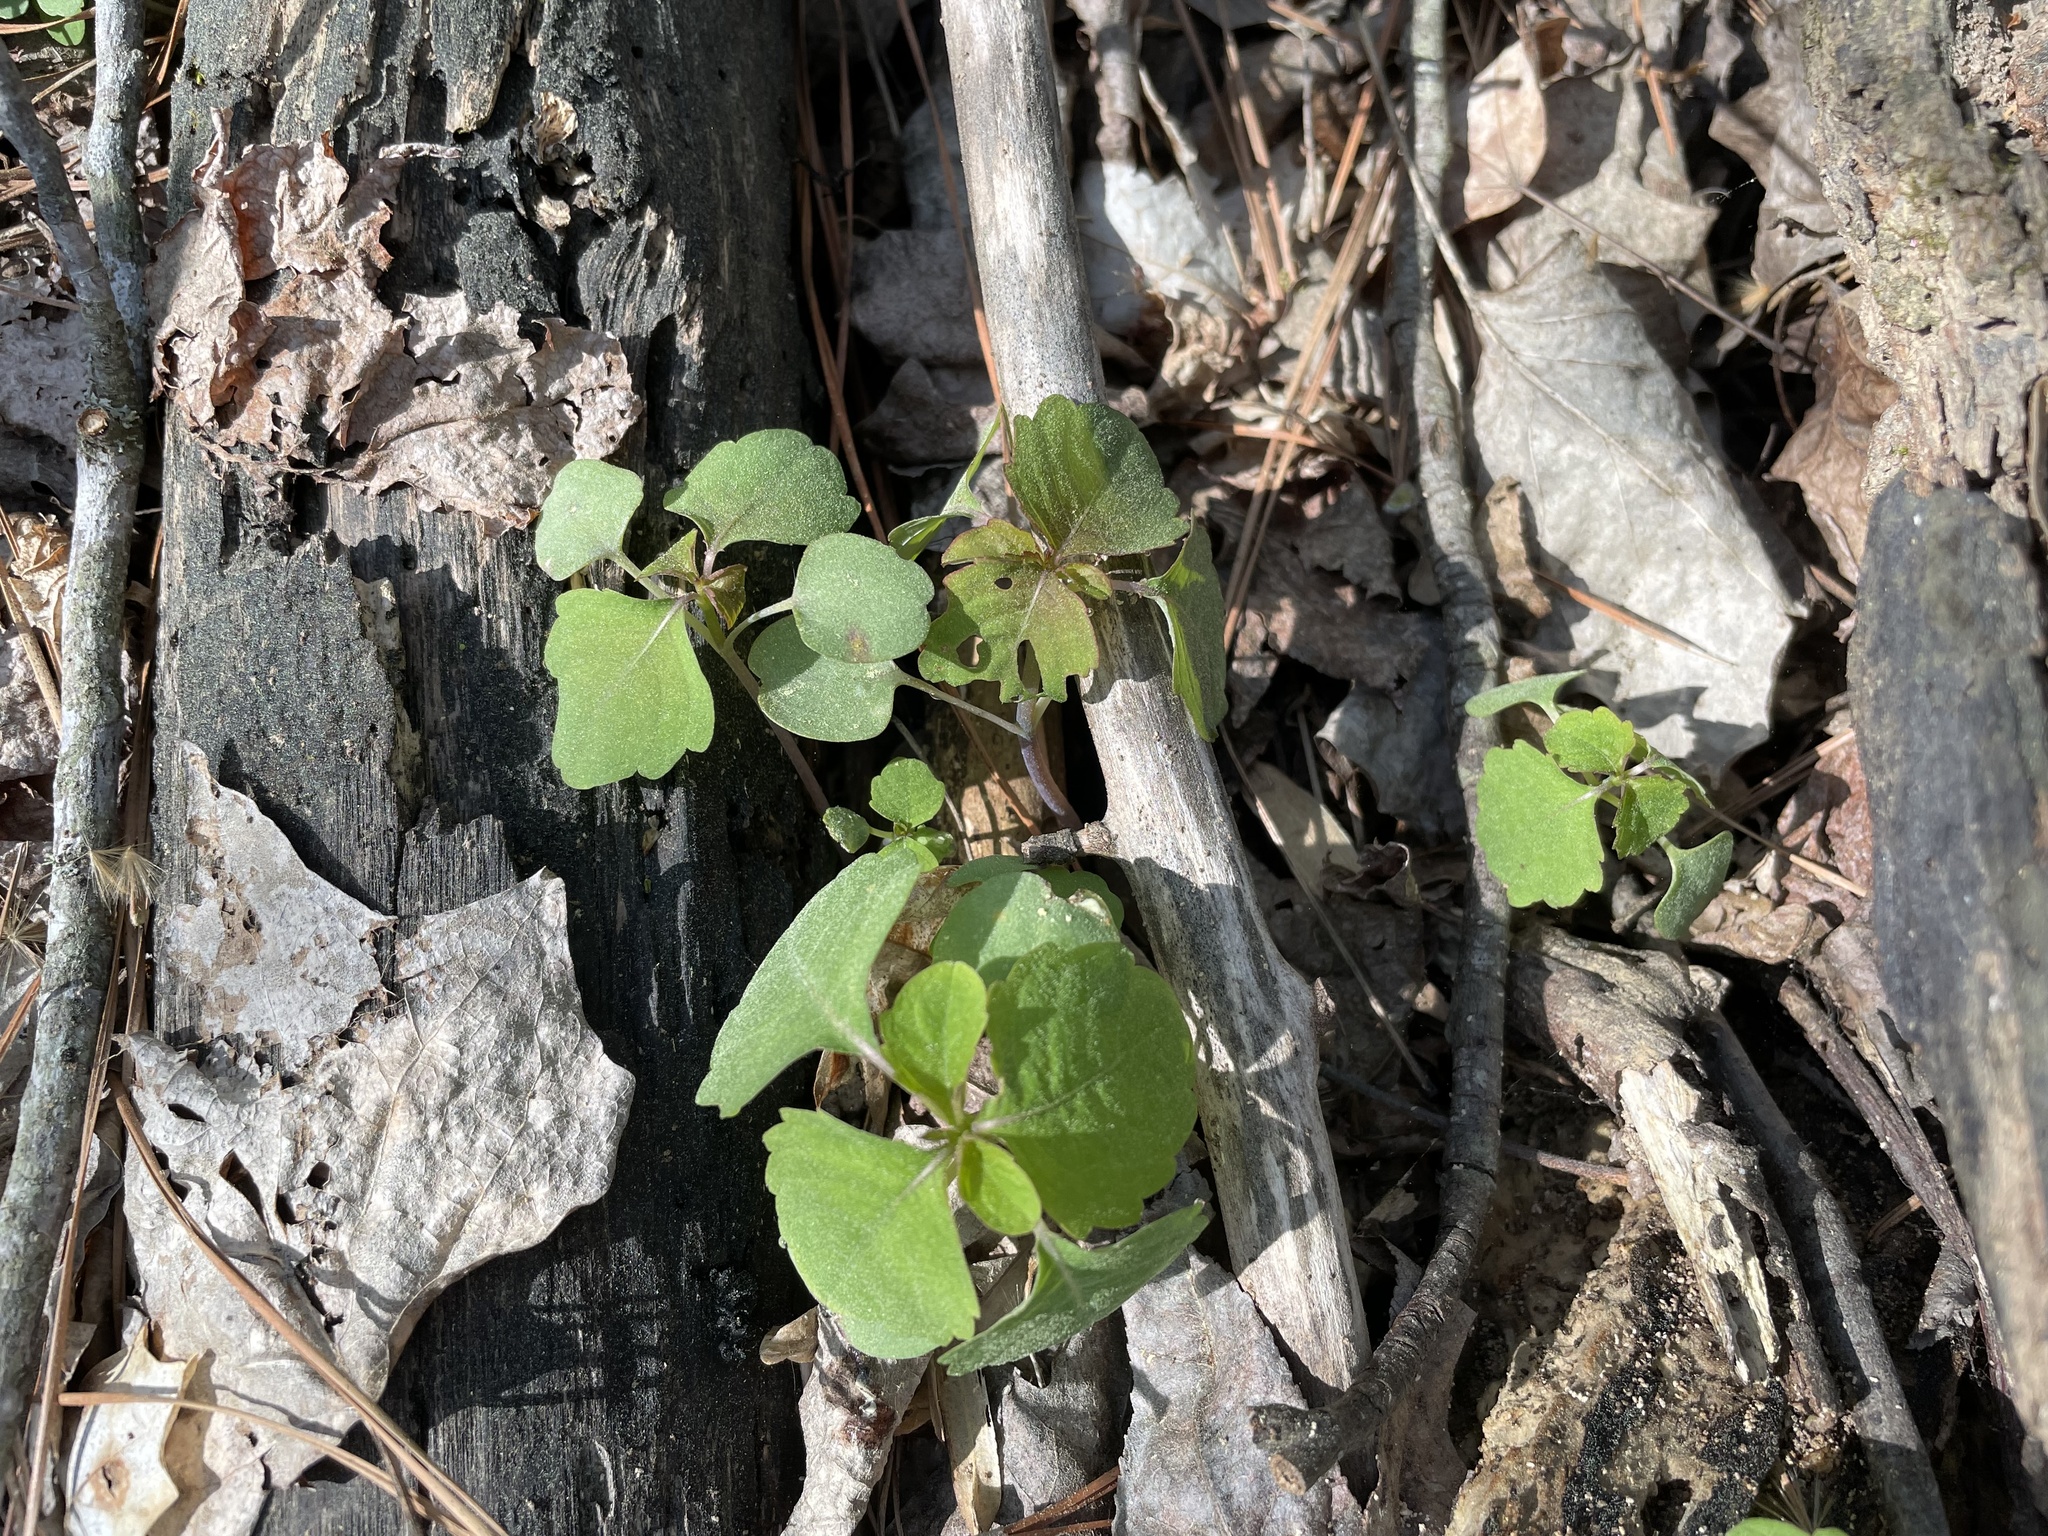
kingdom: Plantae
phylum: Tracheophyta
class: Magnoliopsida
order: Ericales
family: Balsaminaceae
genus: Impatiens
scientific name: Impatiens capensis
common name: Orange balsam
